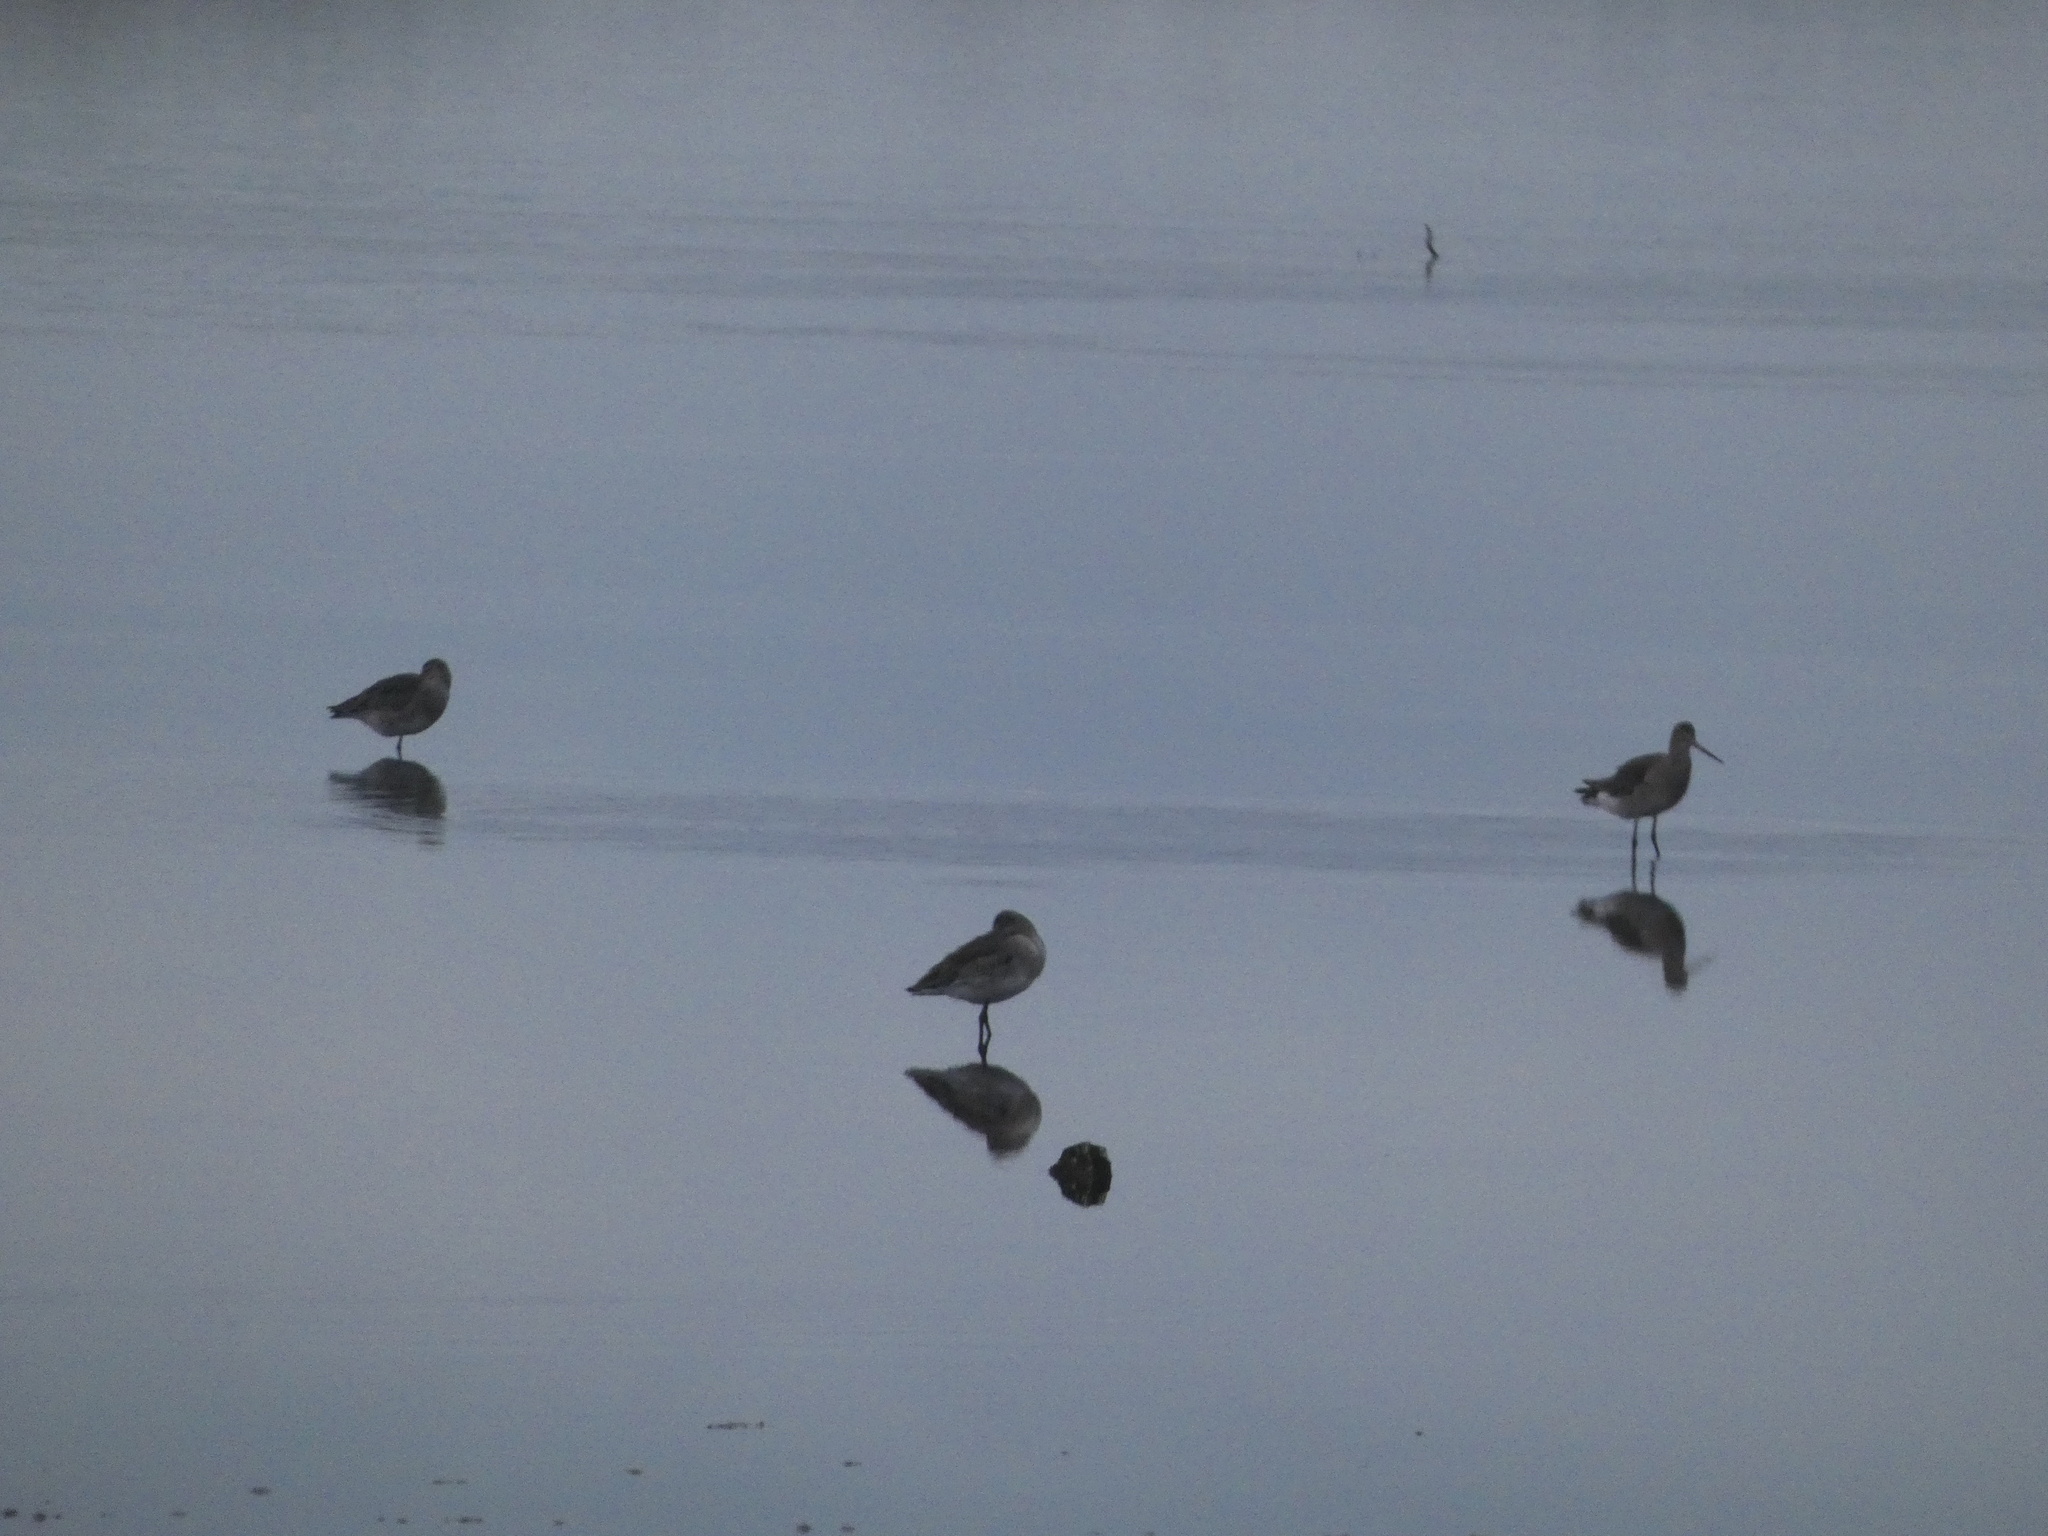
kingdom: Animalia
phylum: Chordata
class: Aves
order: Charadriiformes
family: Scolopacidae
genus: Limosa
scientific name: Limosa limosa
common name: Black-tailed godwit
